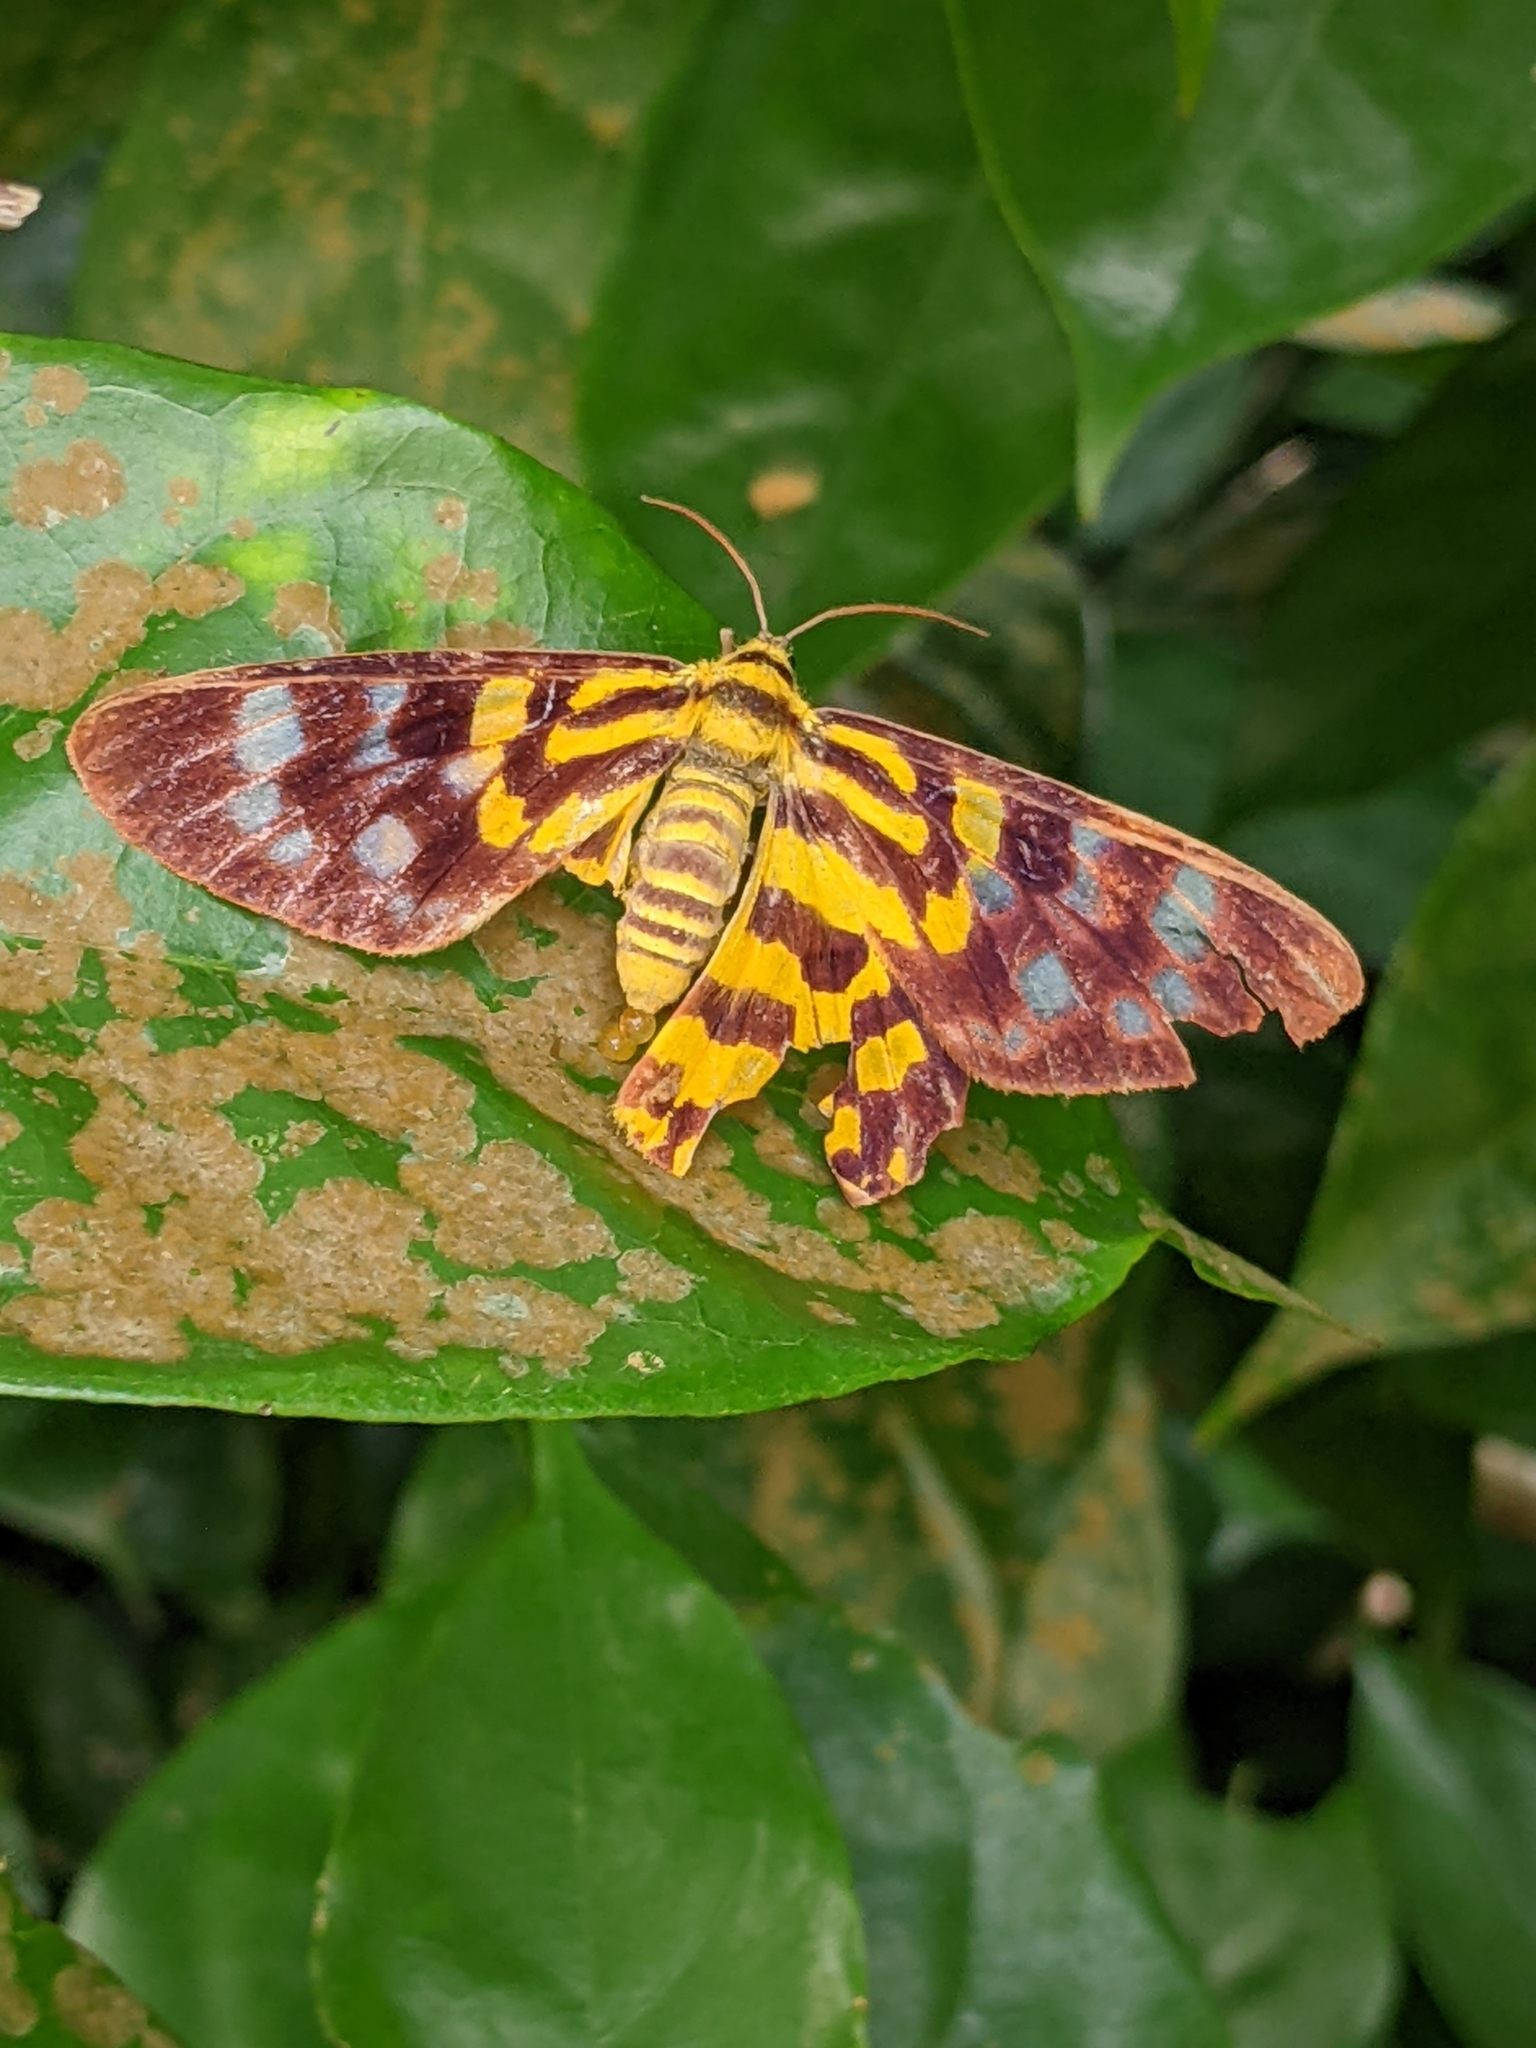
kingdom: Animalia
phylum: Arthropoda
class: Insecta
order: Lepidoptera
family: Geometridae
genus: Dysphania
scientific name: Dysphania subrepleta
